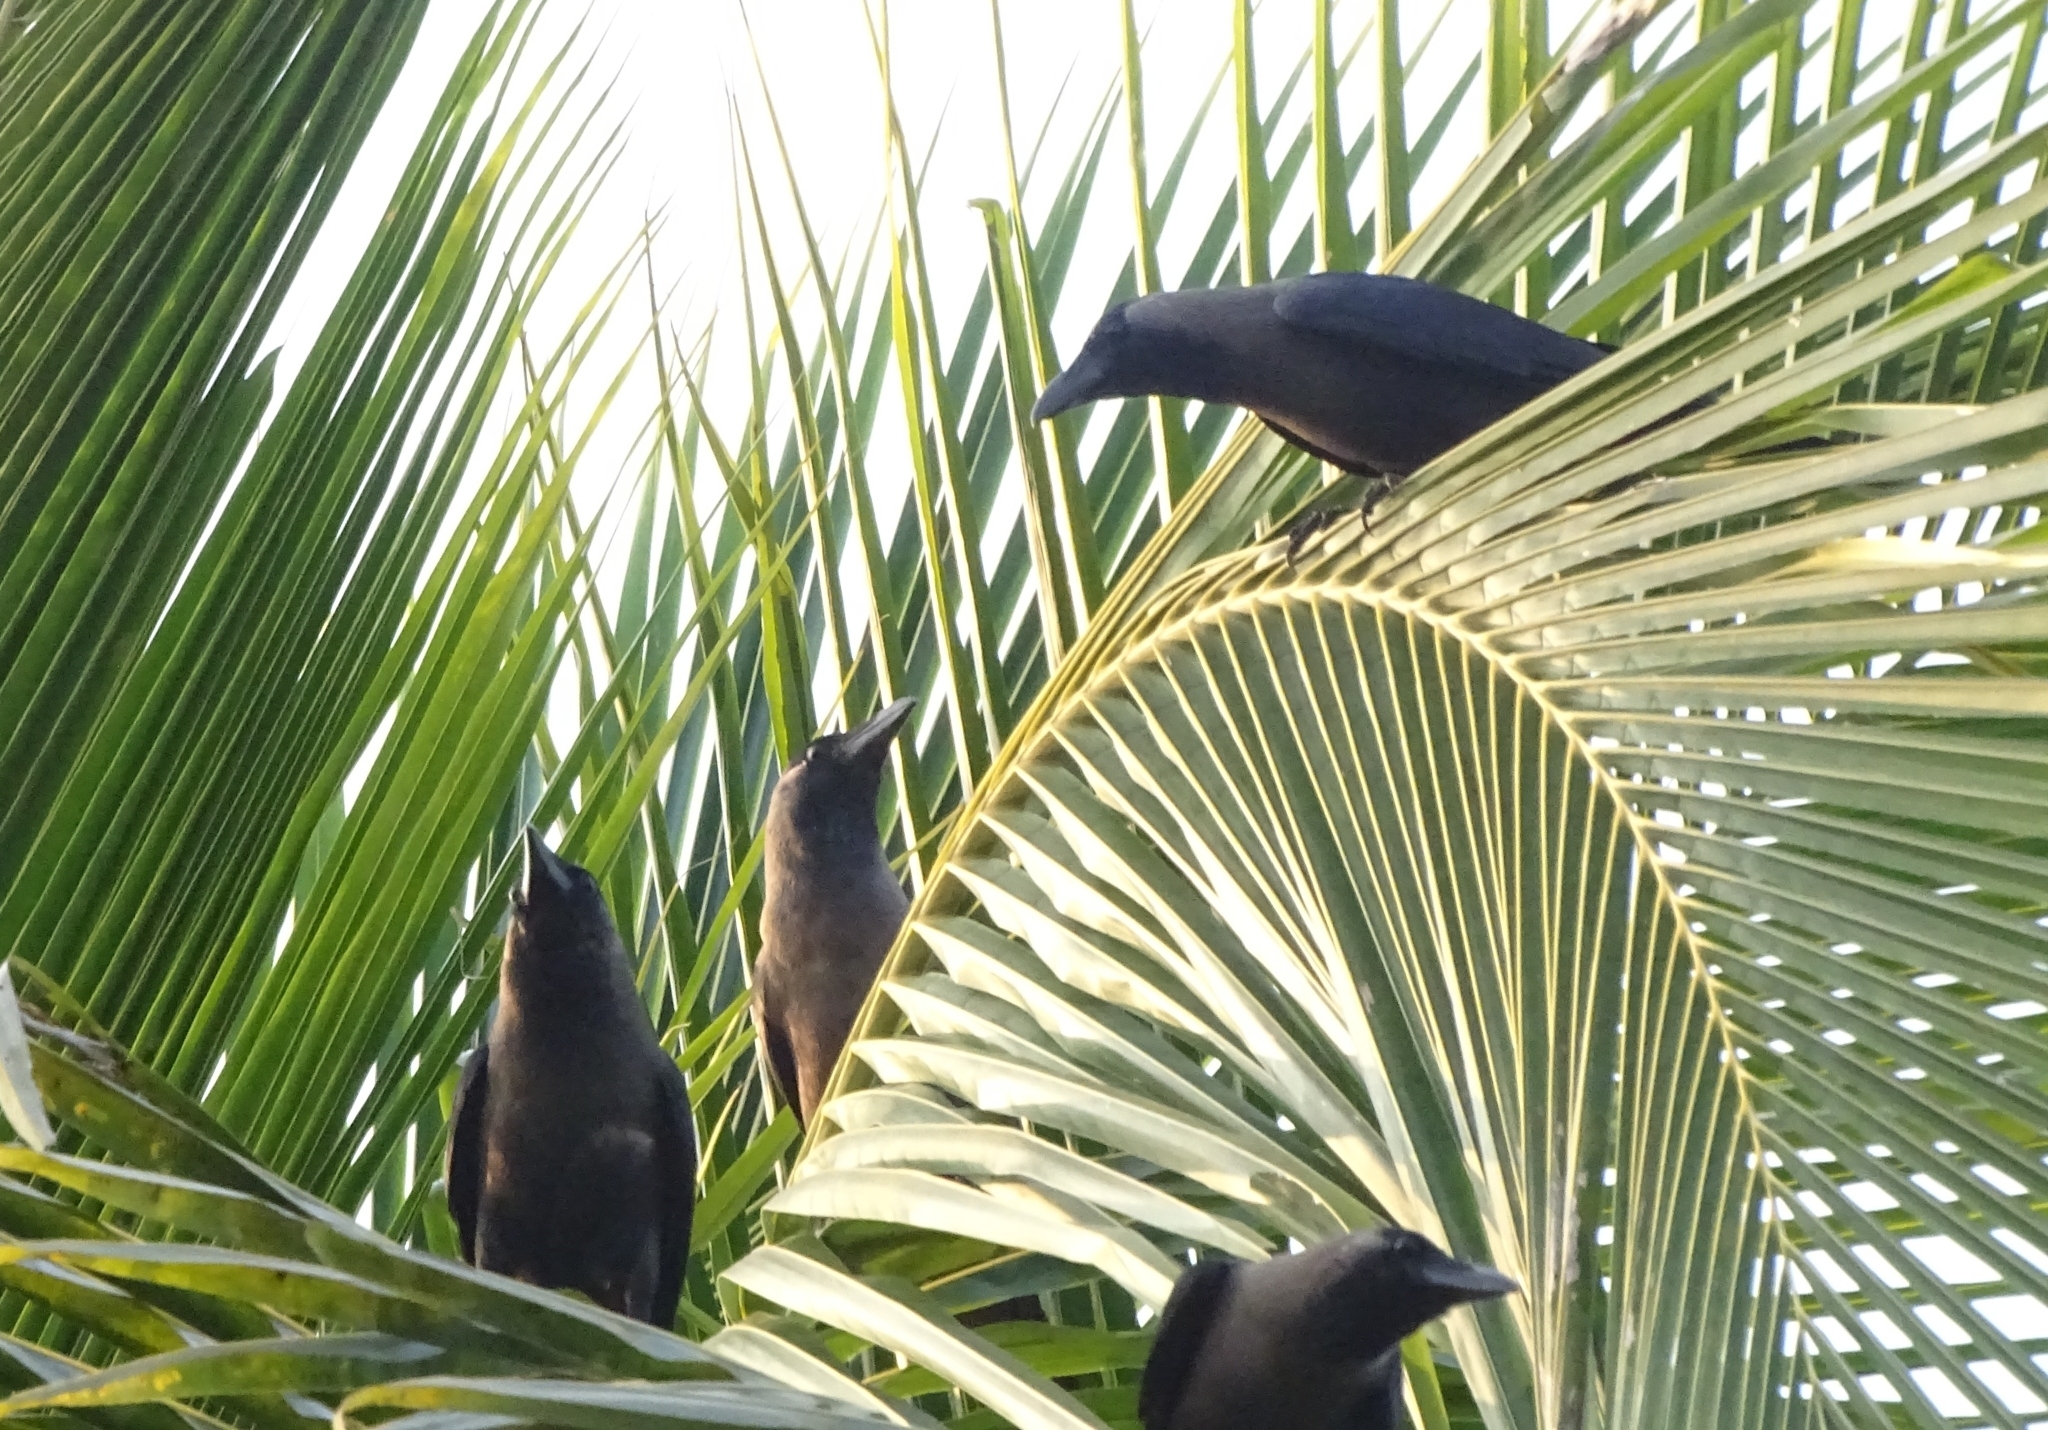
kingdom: Animalia
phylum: Chordata
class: Aves
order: Passeriformes
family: Corvidae
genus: Corvus
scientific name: Corvus splendens
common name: House crow
